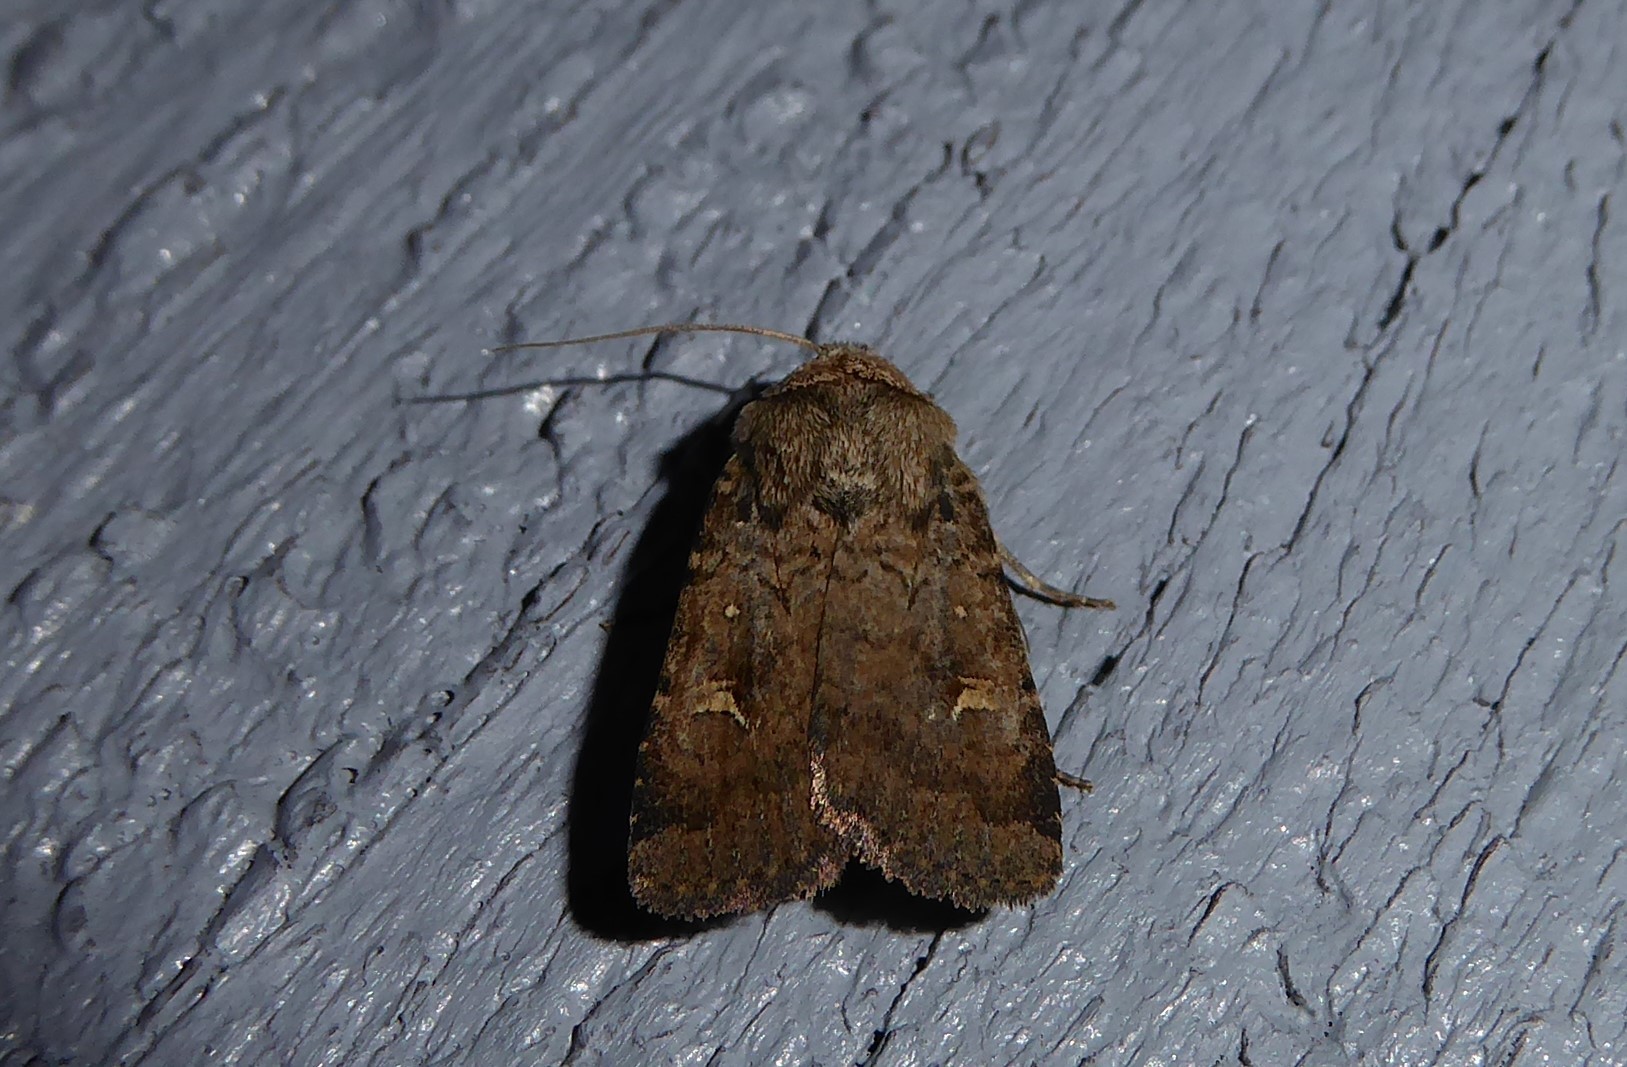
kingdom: Animalia
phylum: Arthropoda
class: Insecta
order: Lepidoptera
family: Noctuidae
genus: Proteuxoa
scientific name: Proteuxoa tetronycha
